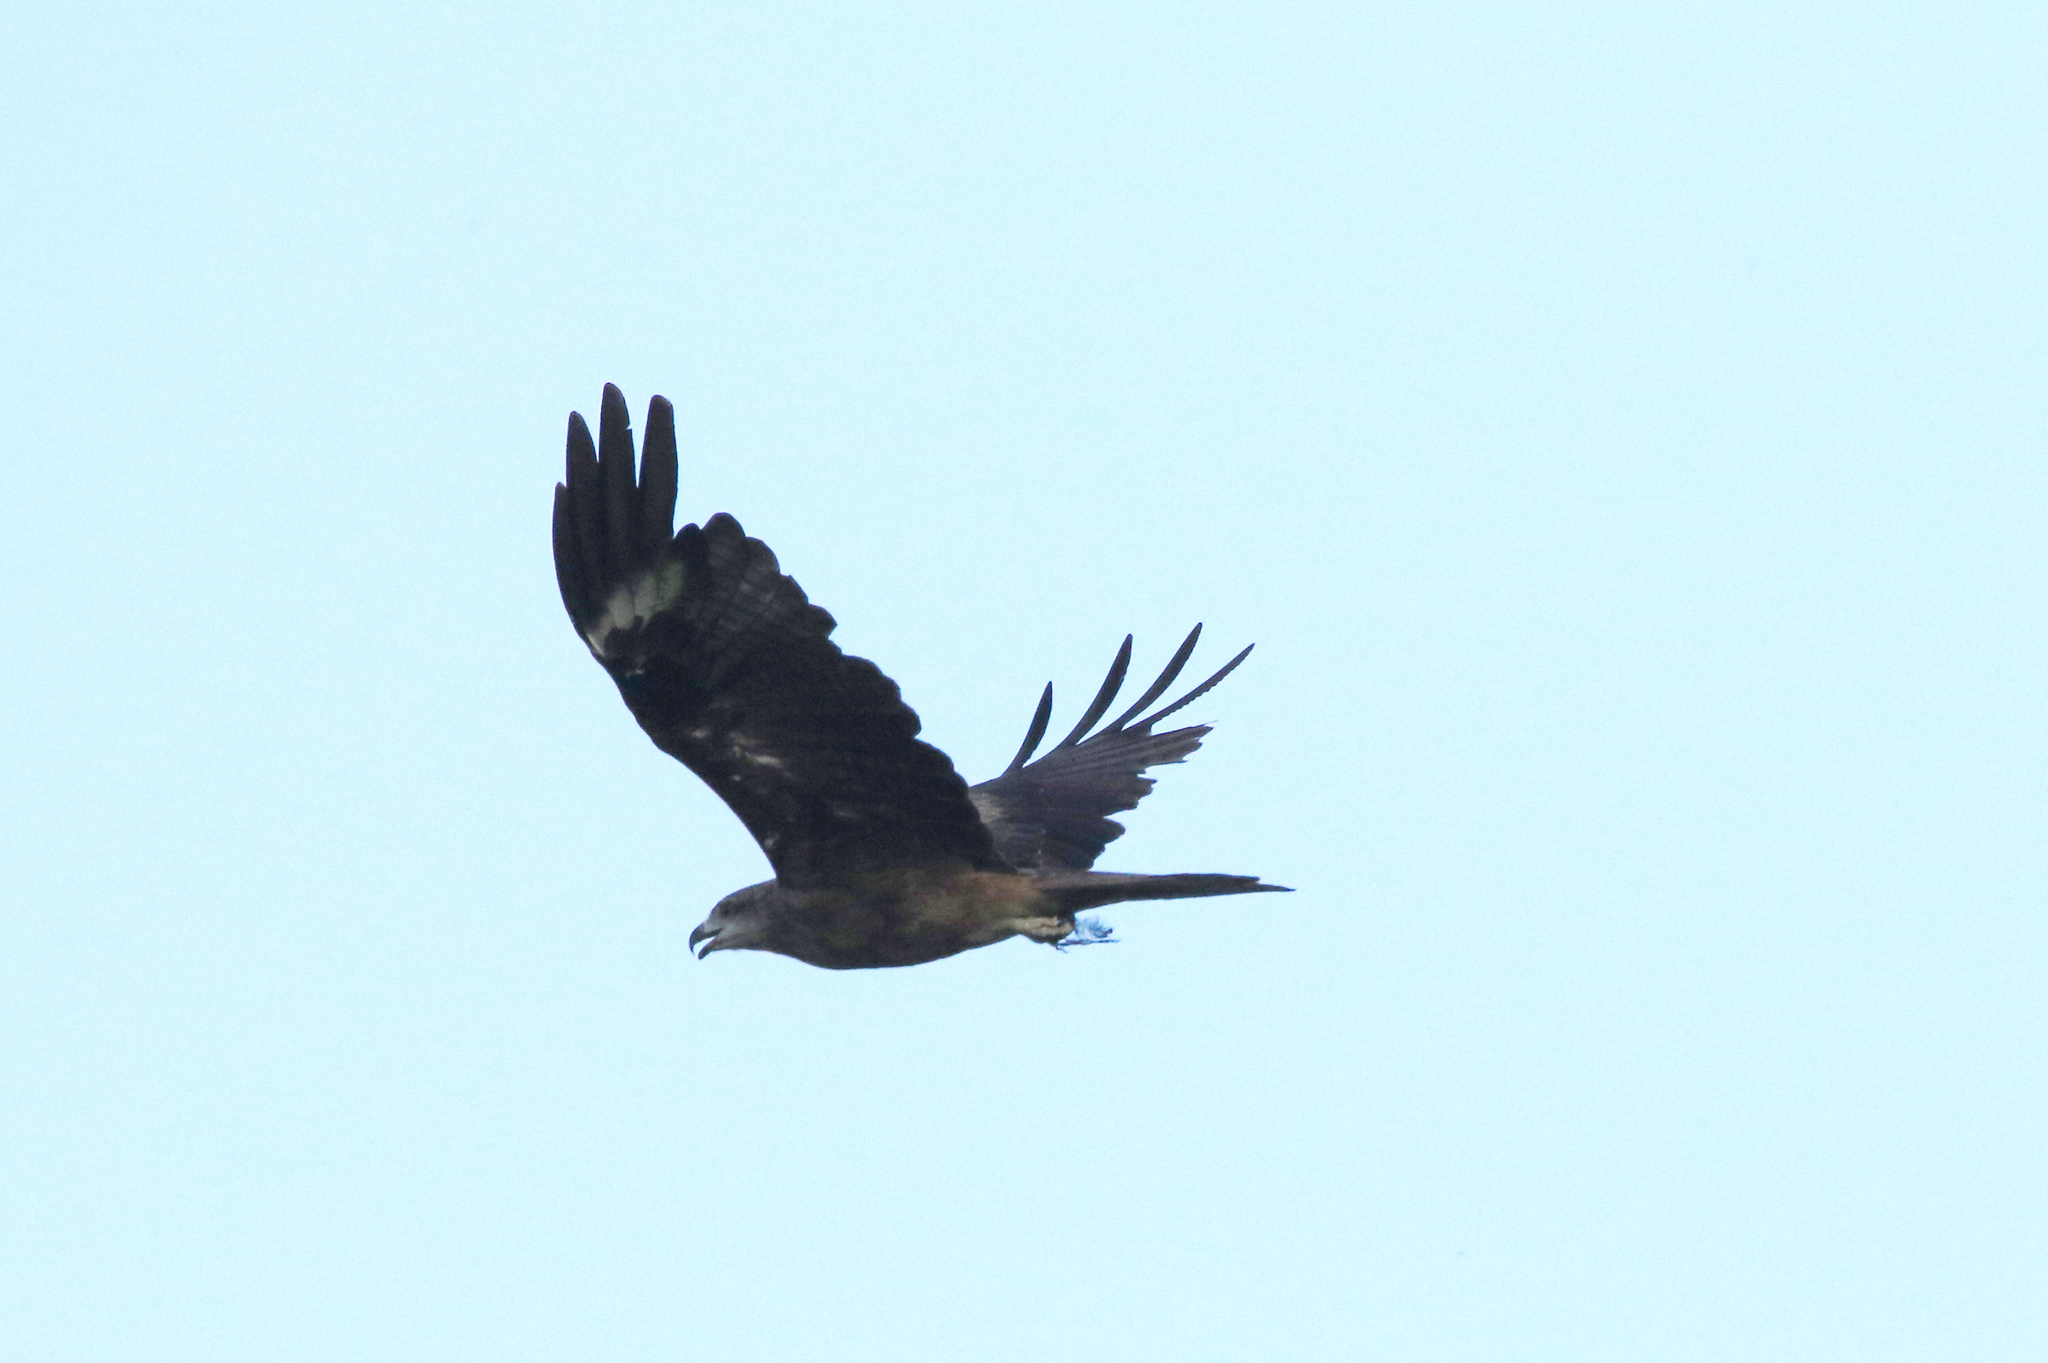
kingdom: Animalia
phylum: Chordata
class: Aves
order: Accipitriformes
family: Accipitridae
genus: Milvus
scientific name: Milvus migrans
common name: Black kite
